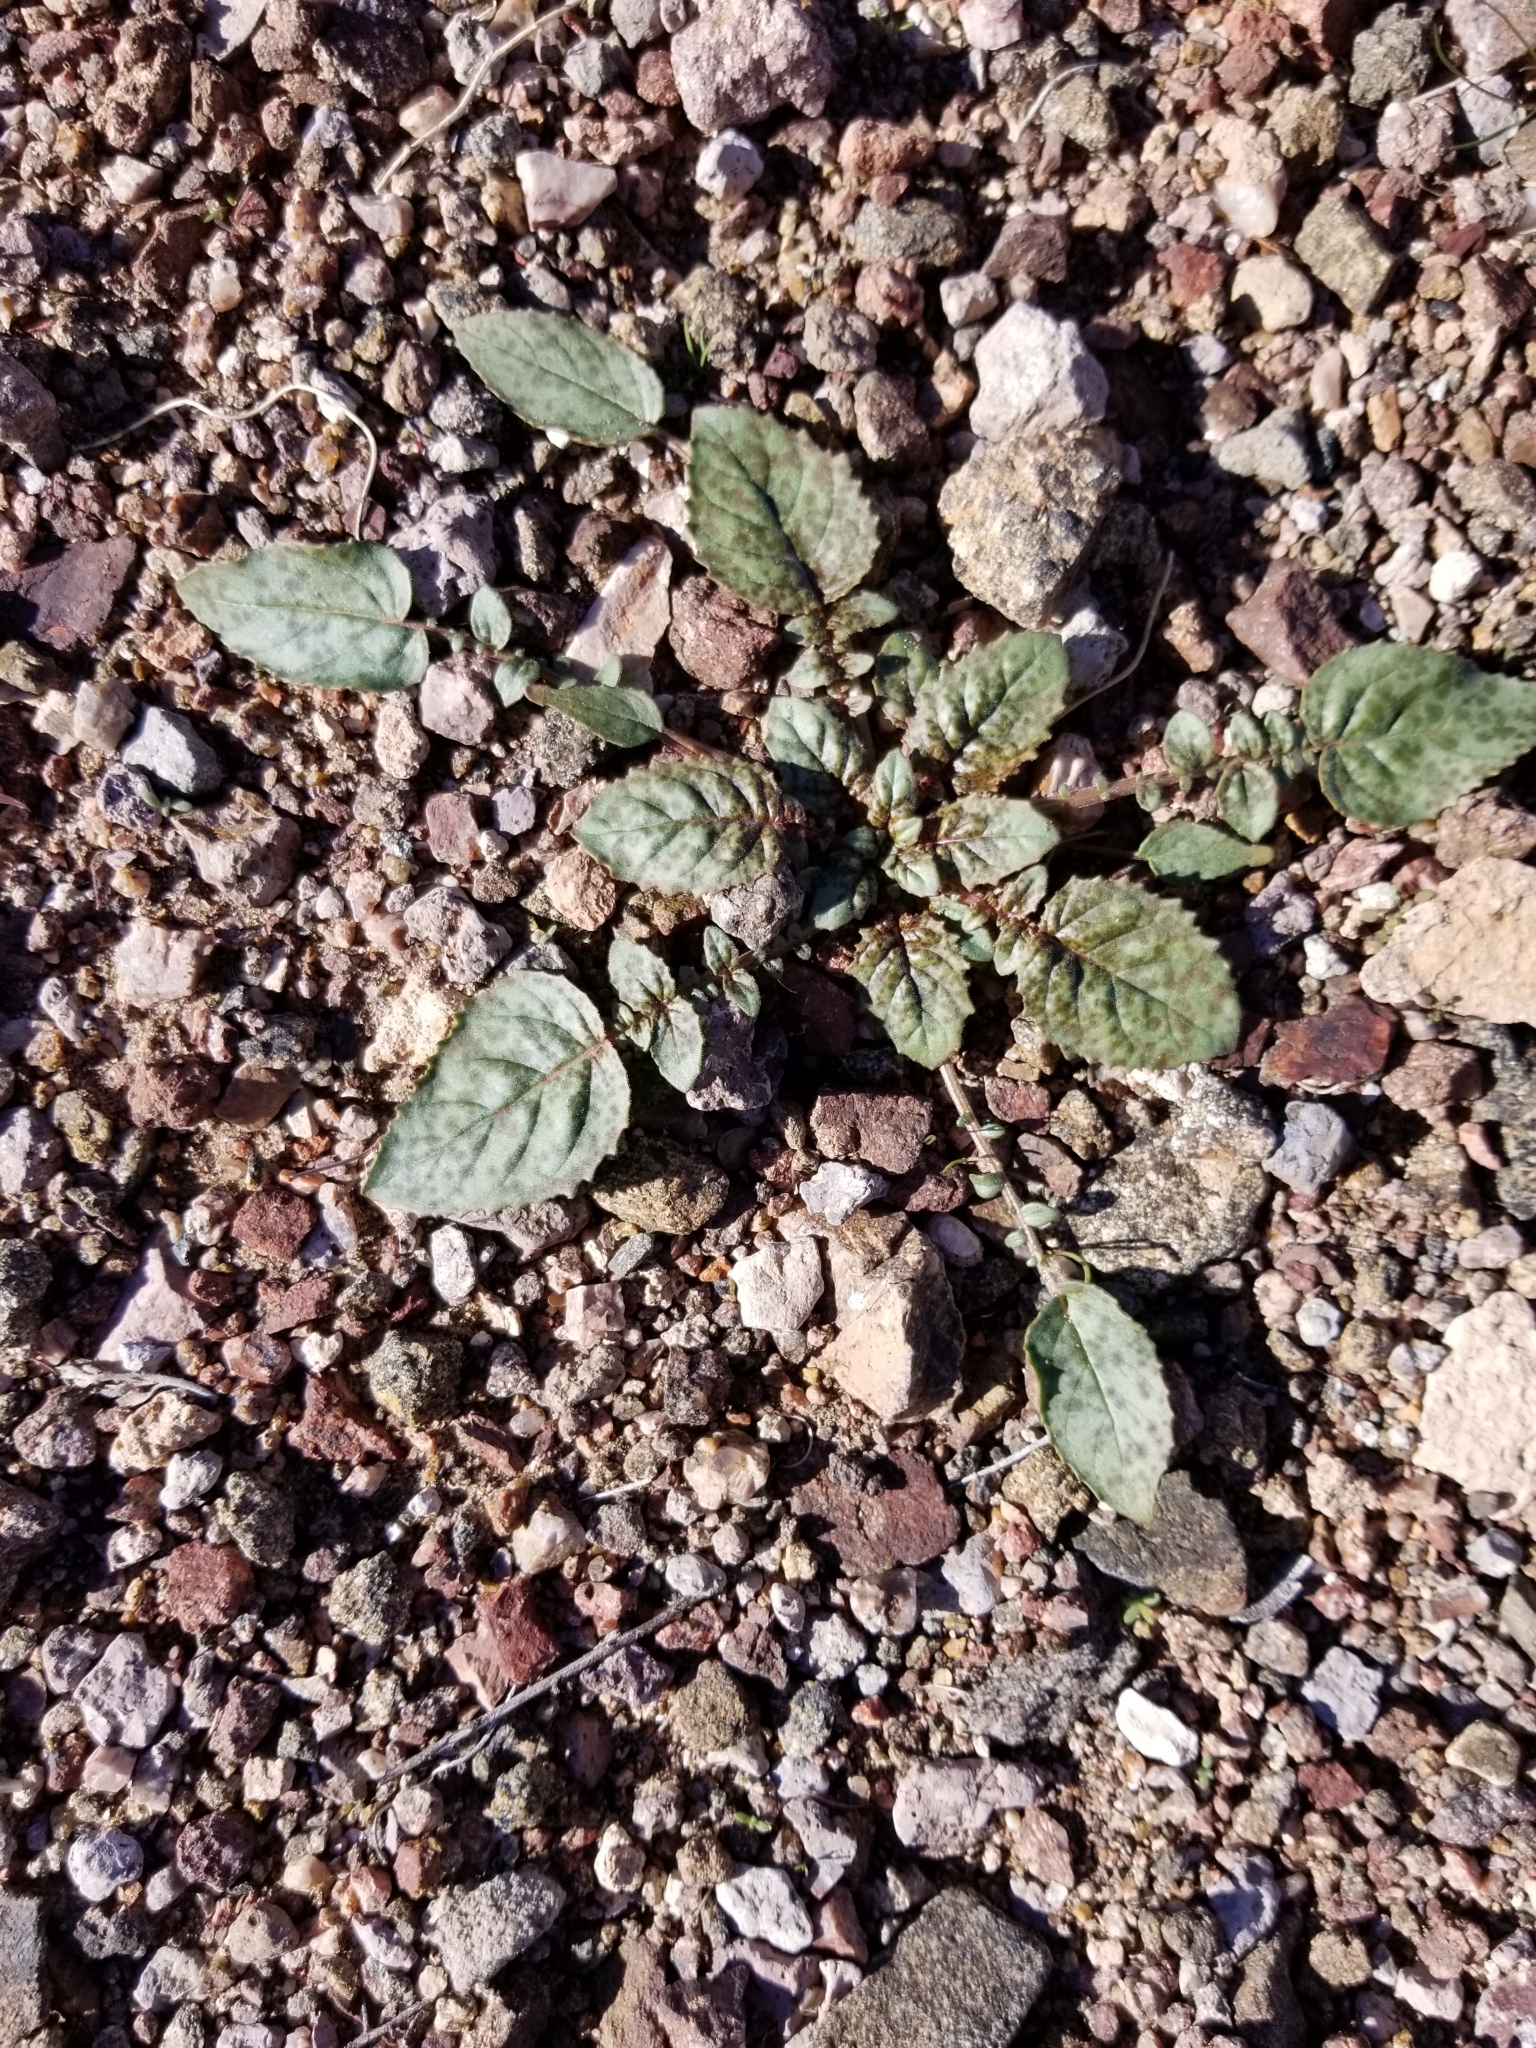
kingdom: Plantae
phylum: Tracheophyta
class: Magnoliopsida
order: Myrtales
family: Onagraceae
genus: Chylismia
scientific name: Chylismia brevipes
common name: Yellow cups
